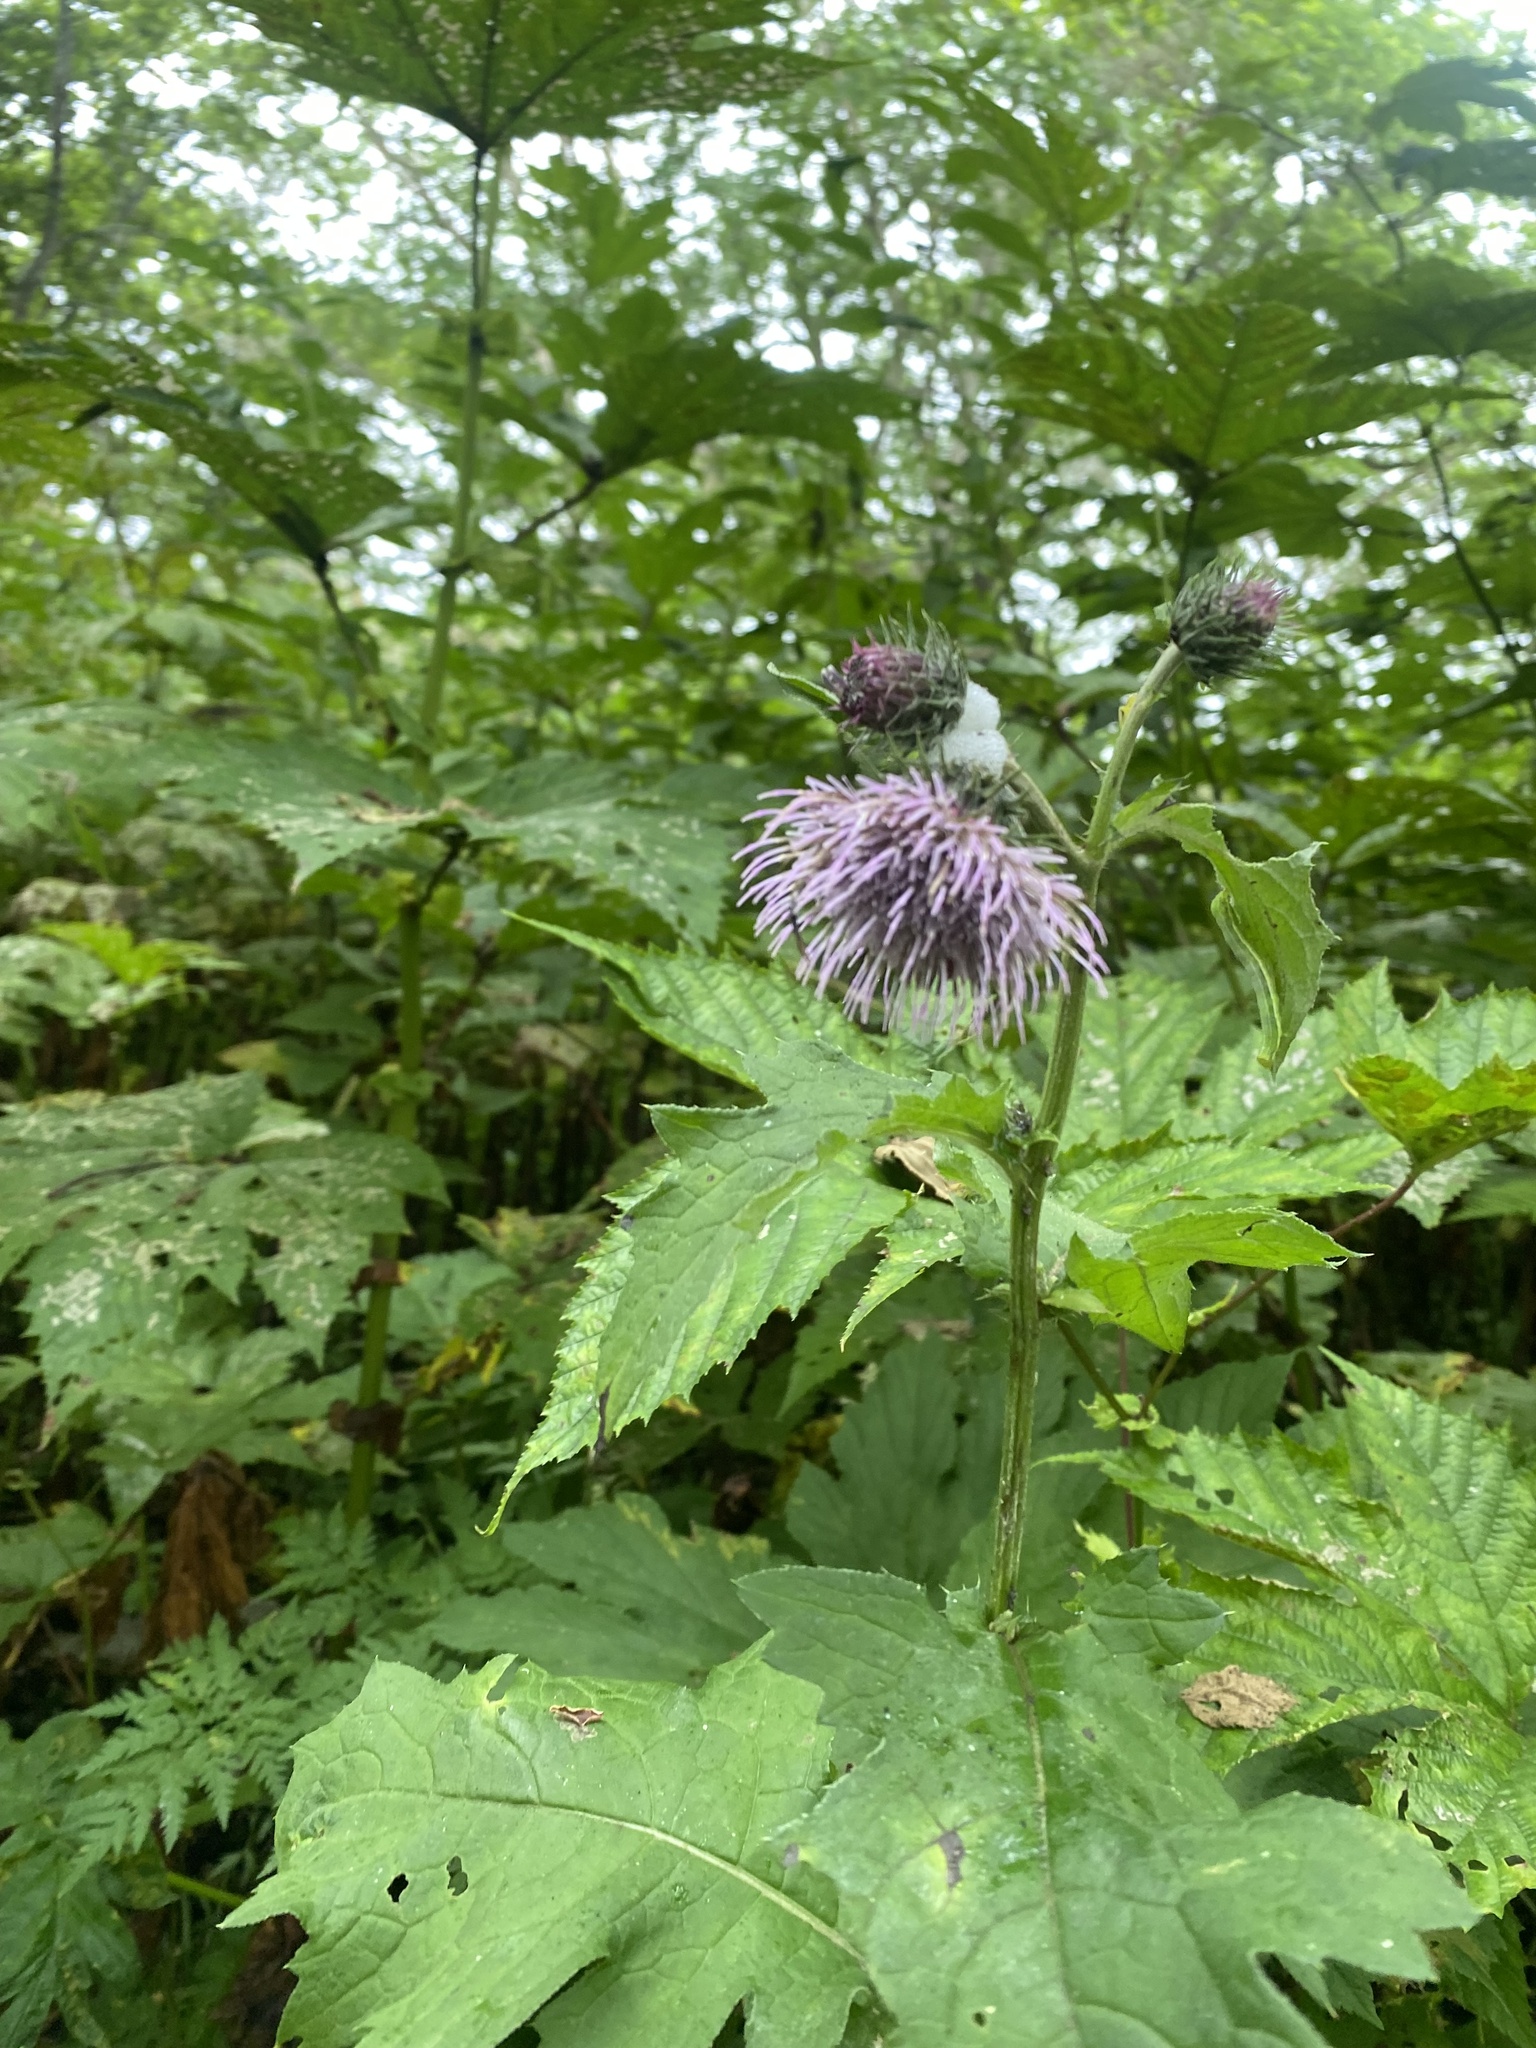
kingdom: Plantae
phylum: Tracheophyta
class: Magnoliopsida
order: Asterales
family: Asteraceae
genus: Cirsium
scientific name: Cirsium kamtschaticum
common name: Kamchatka thistle
